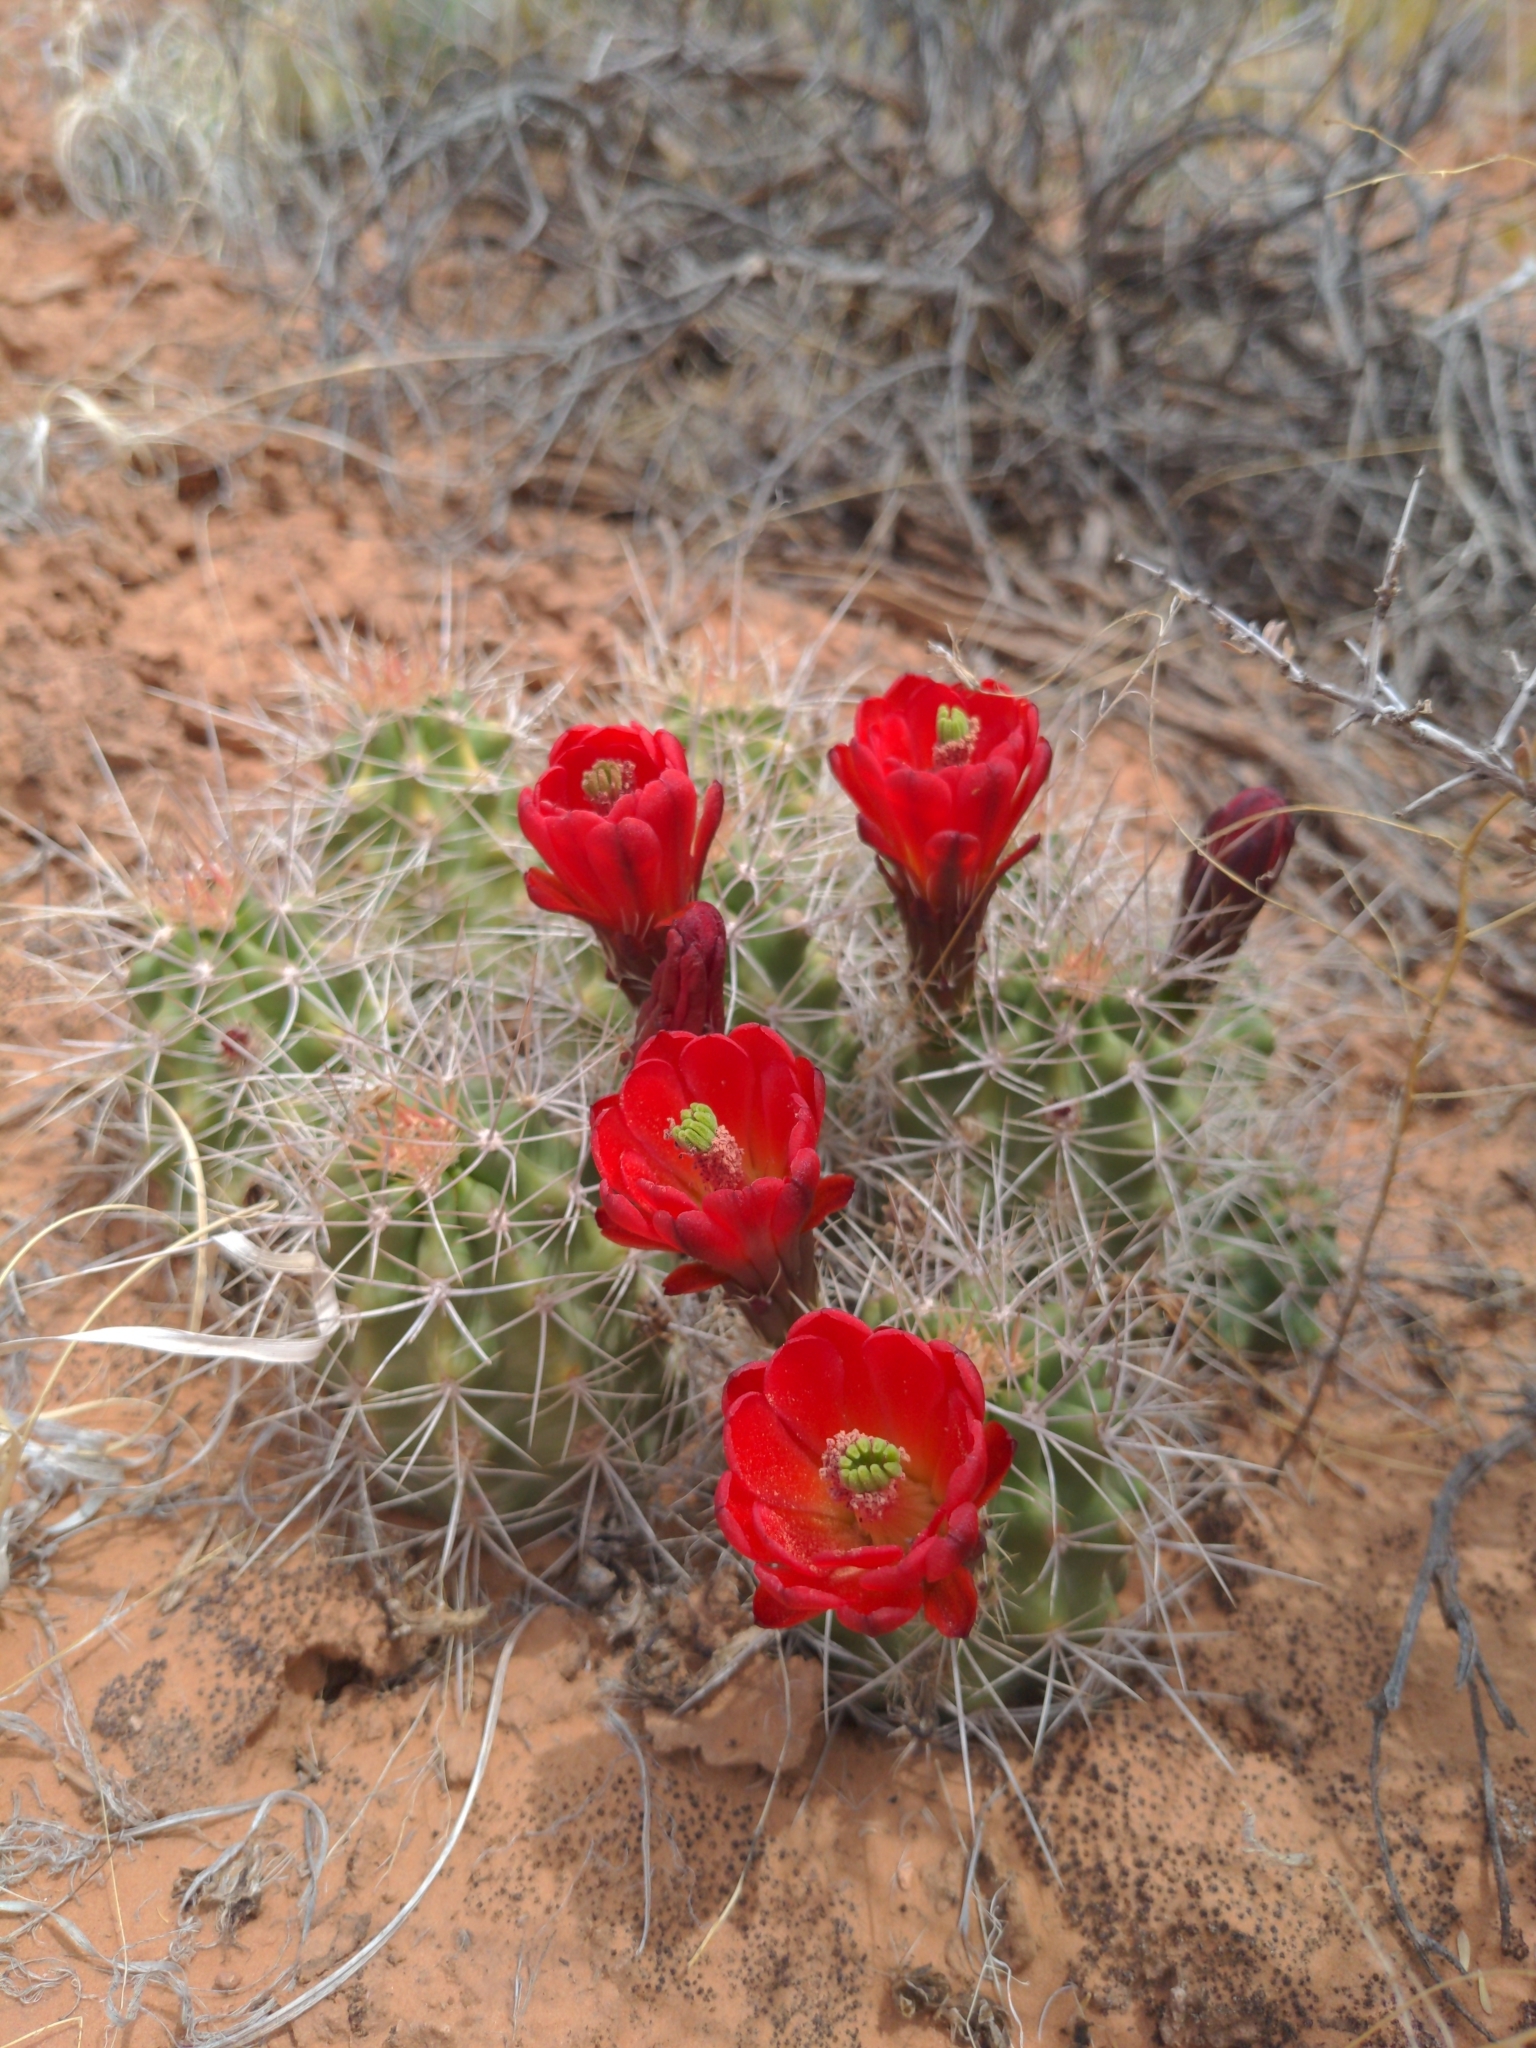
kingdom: Plantae
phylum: Tracheophyta
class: Magnoliopsida
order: Caryophyllales
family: Cactaceae
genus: Echinocereus
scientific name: Echinocereus triglochidiatus
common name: Claretcup hedgehog
